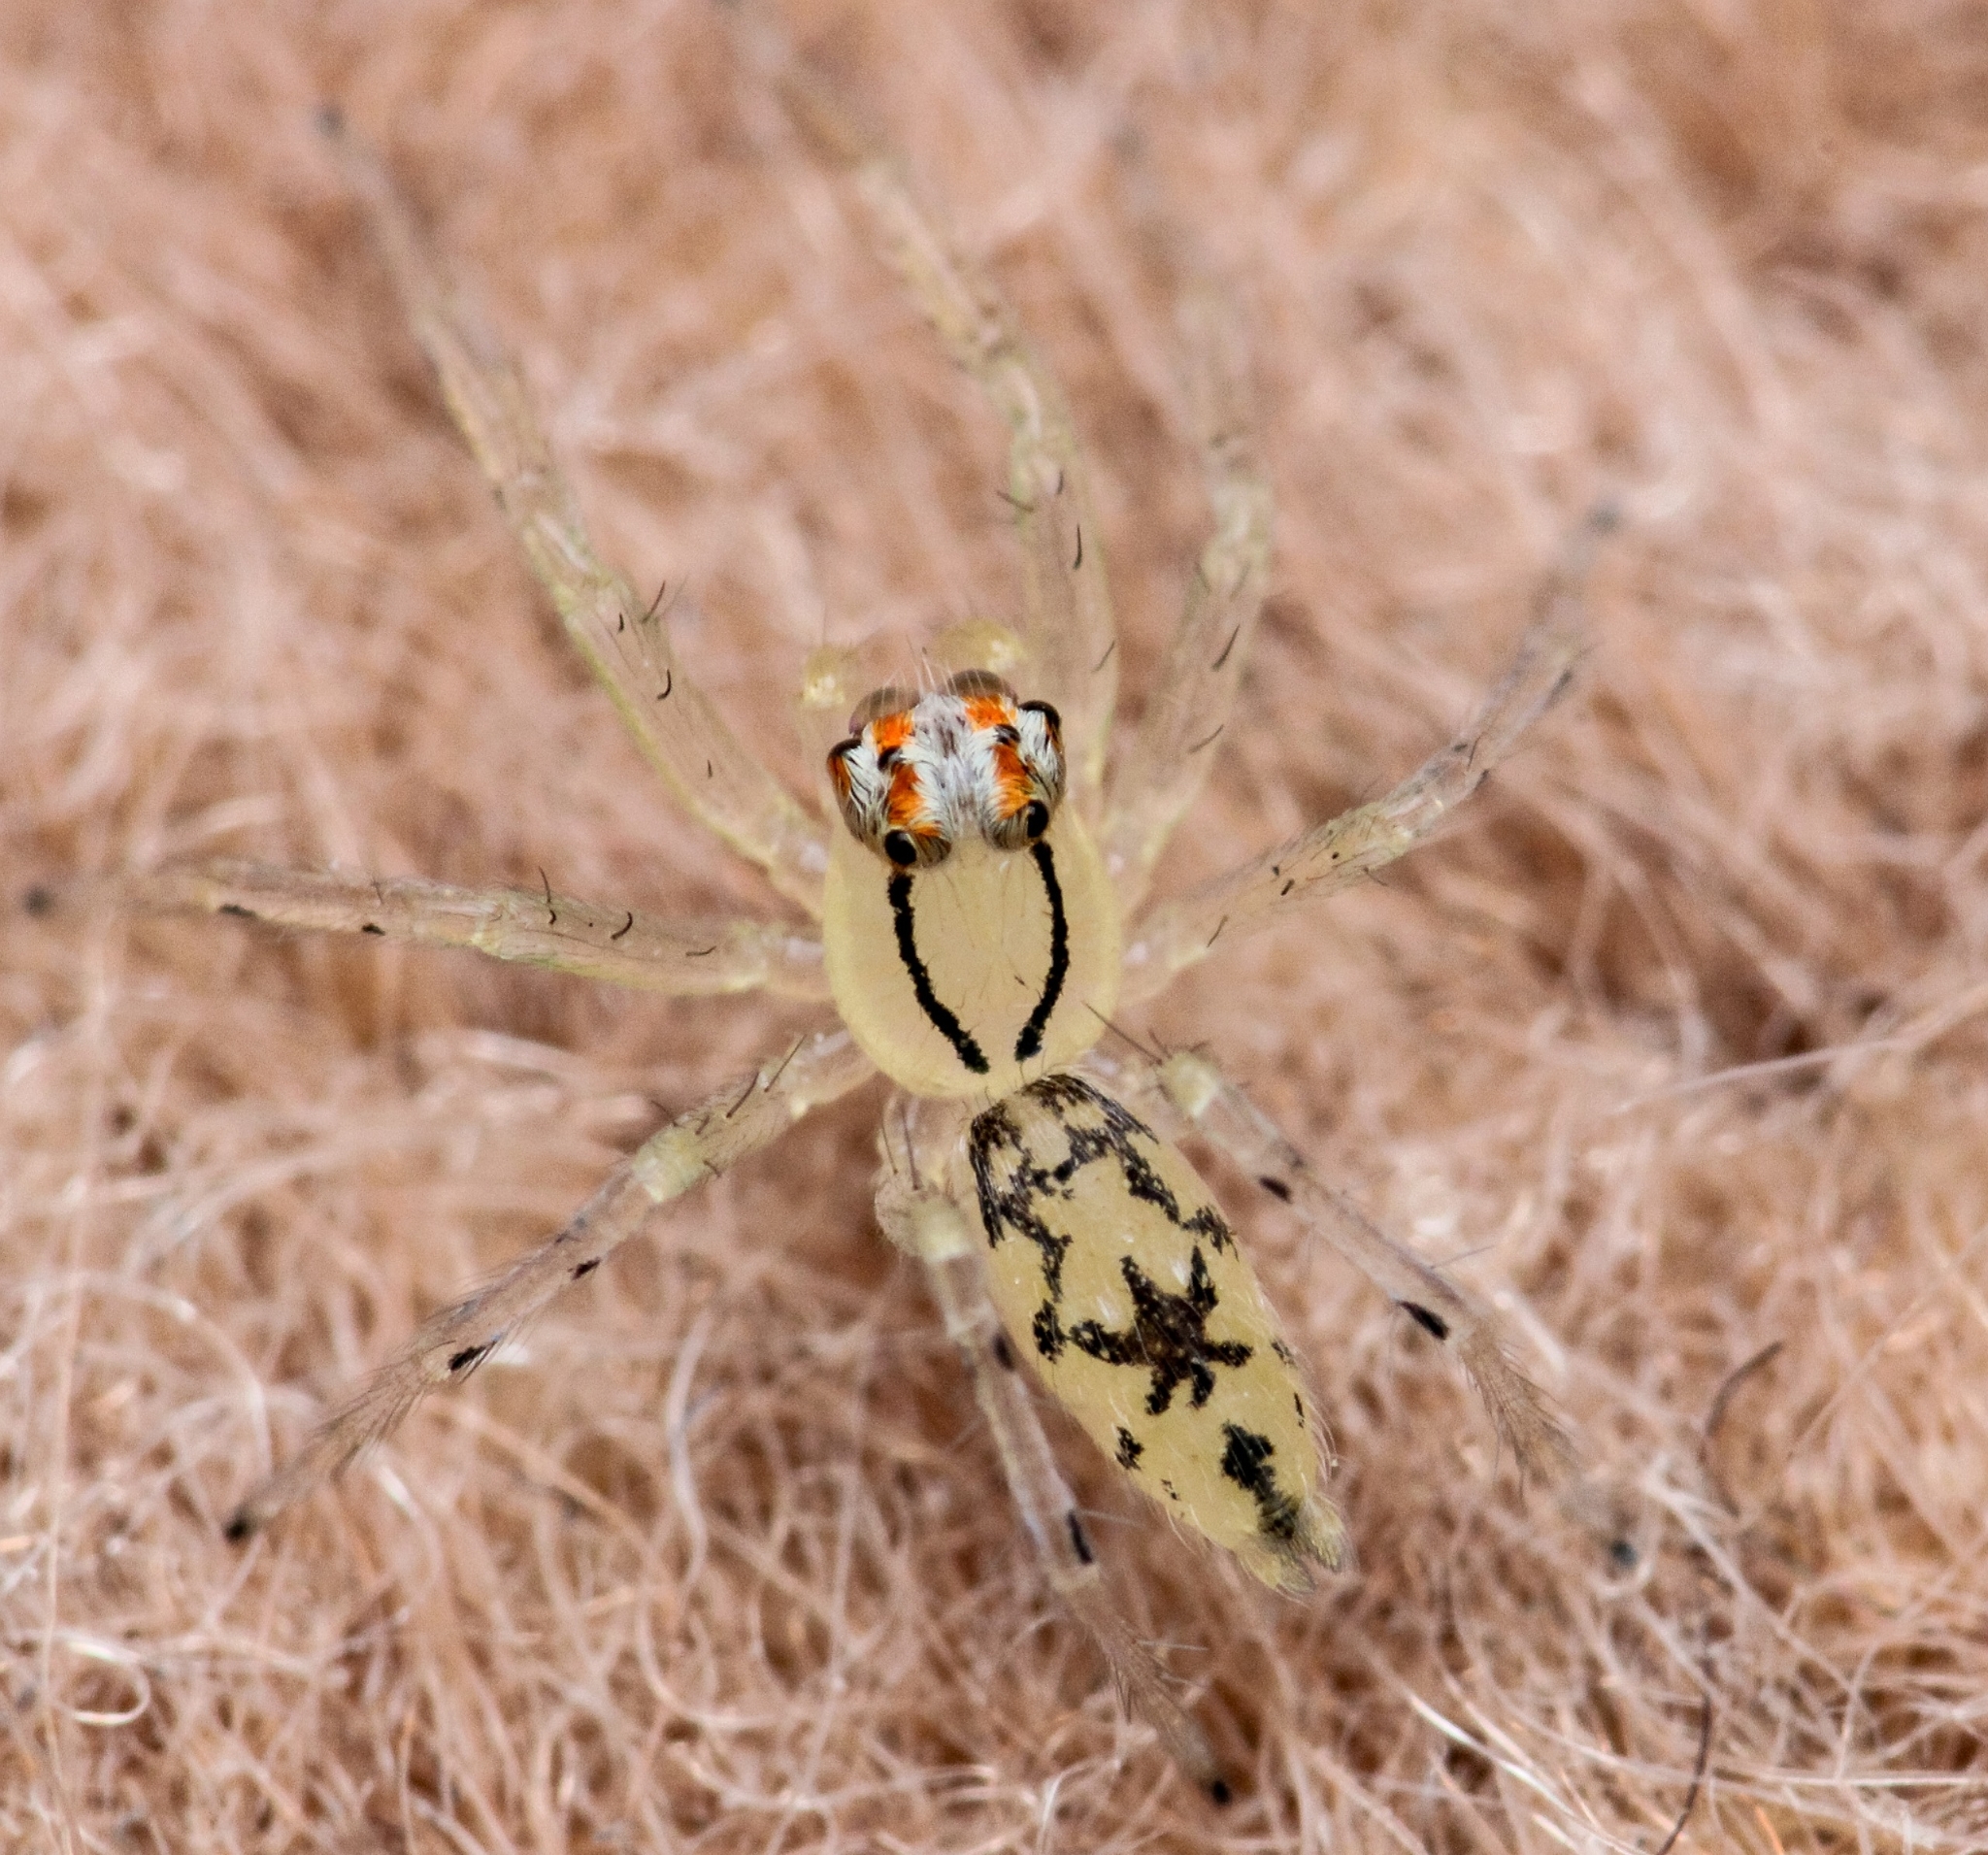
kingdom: Animalia
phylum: Arthropoda
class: Arachnida
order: Araneae
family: Salticidae
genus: Asemonea
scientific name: Asemonea stella
